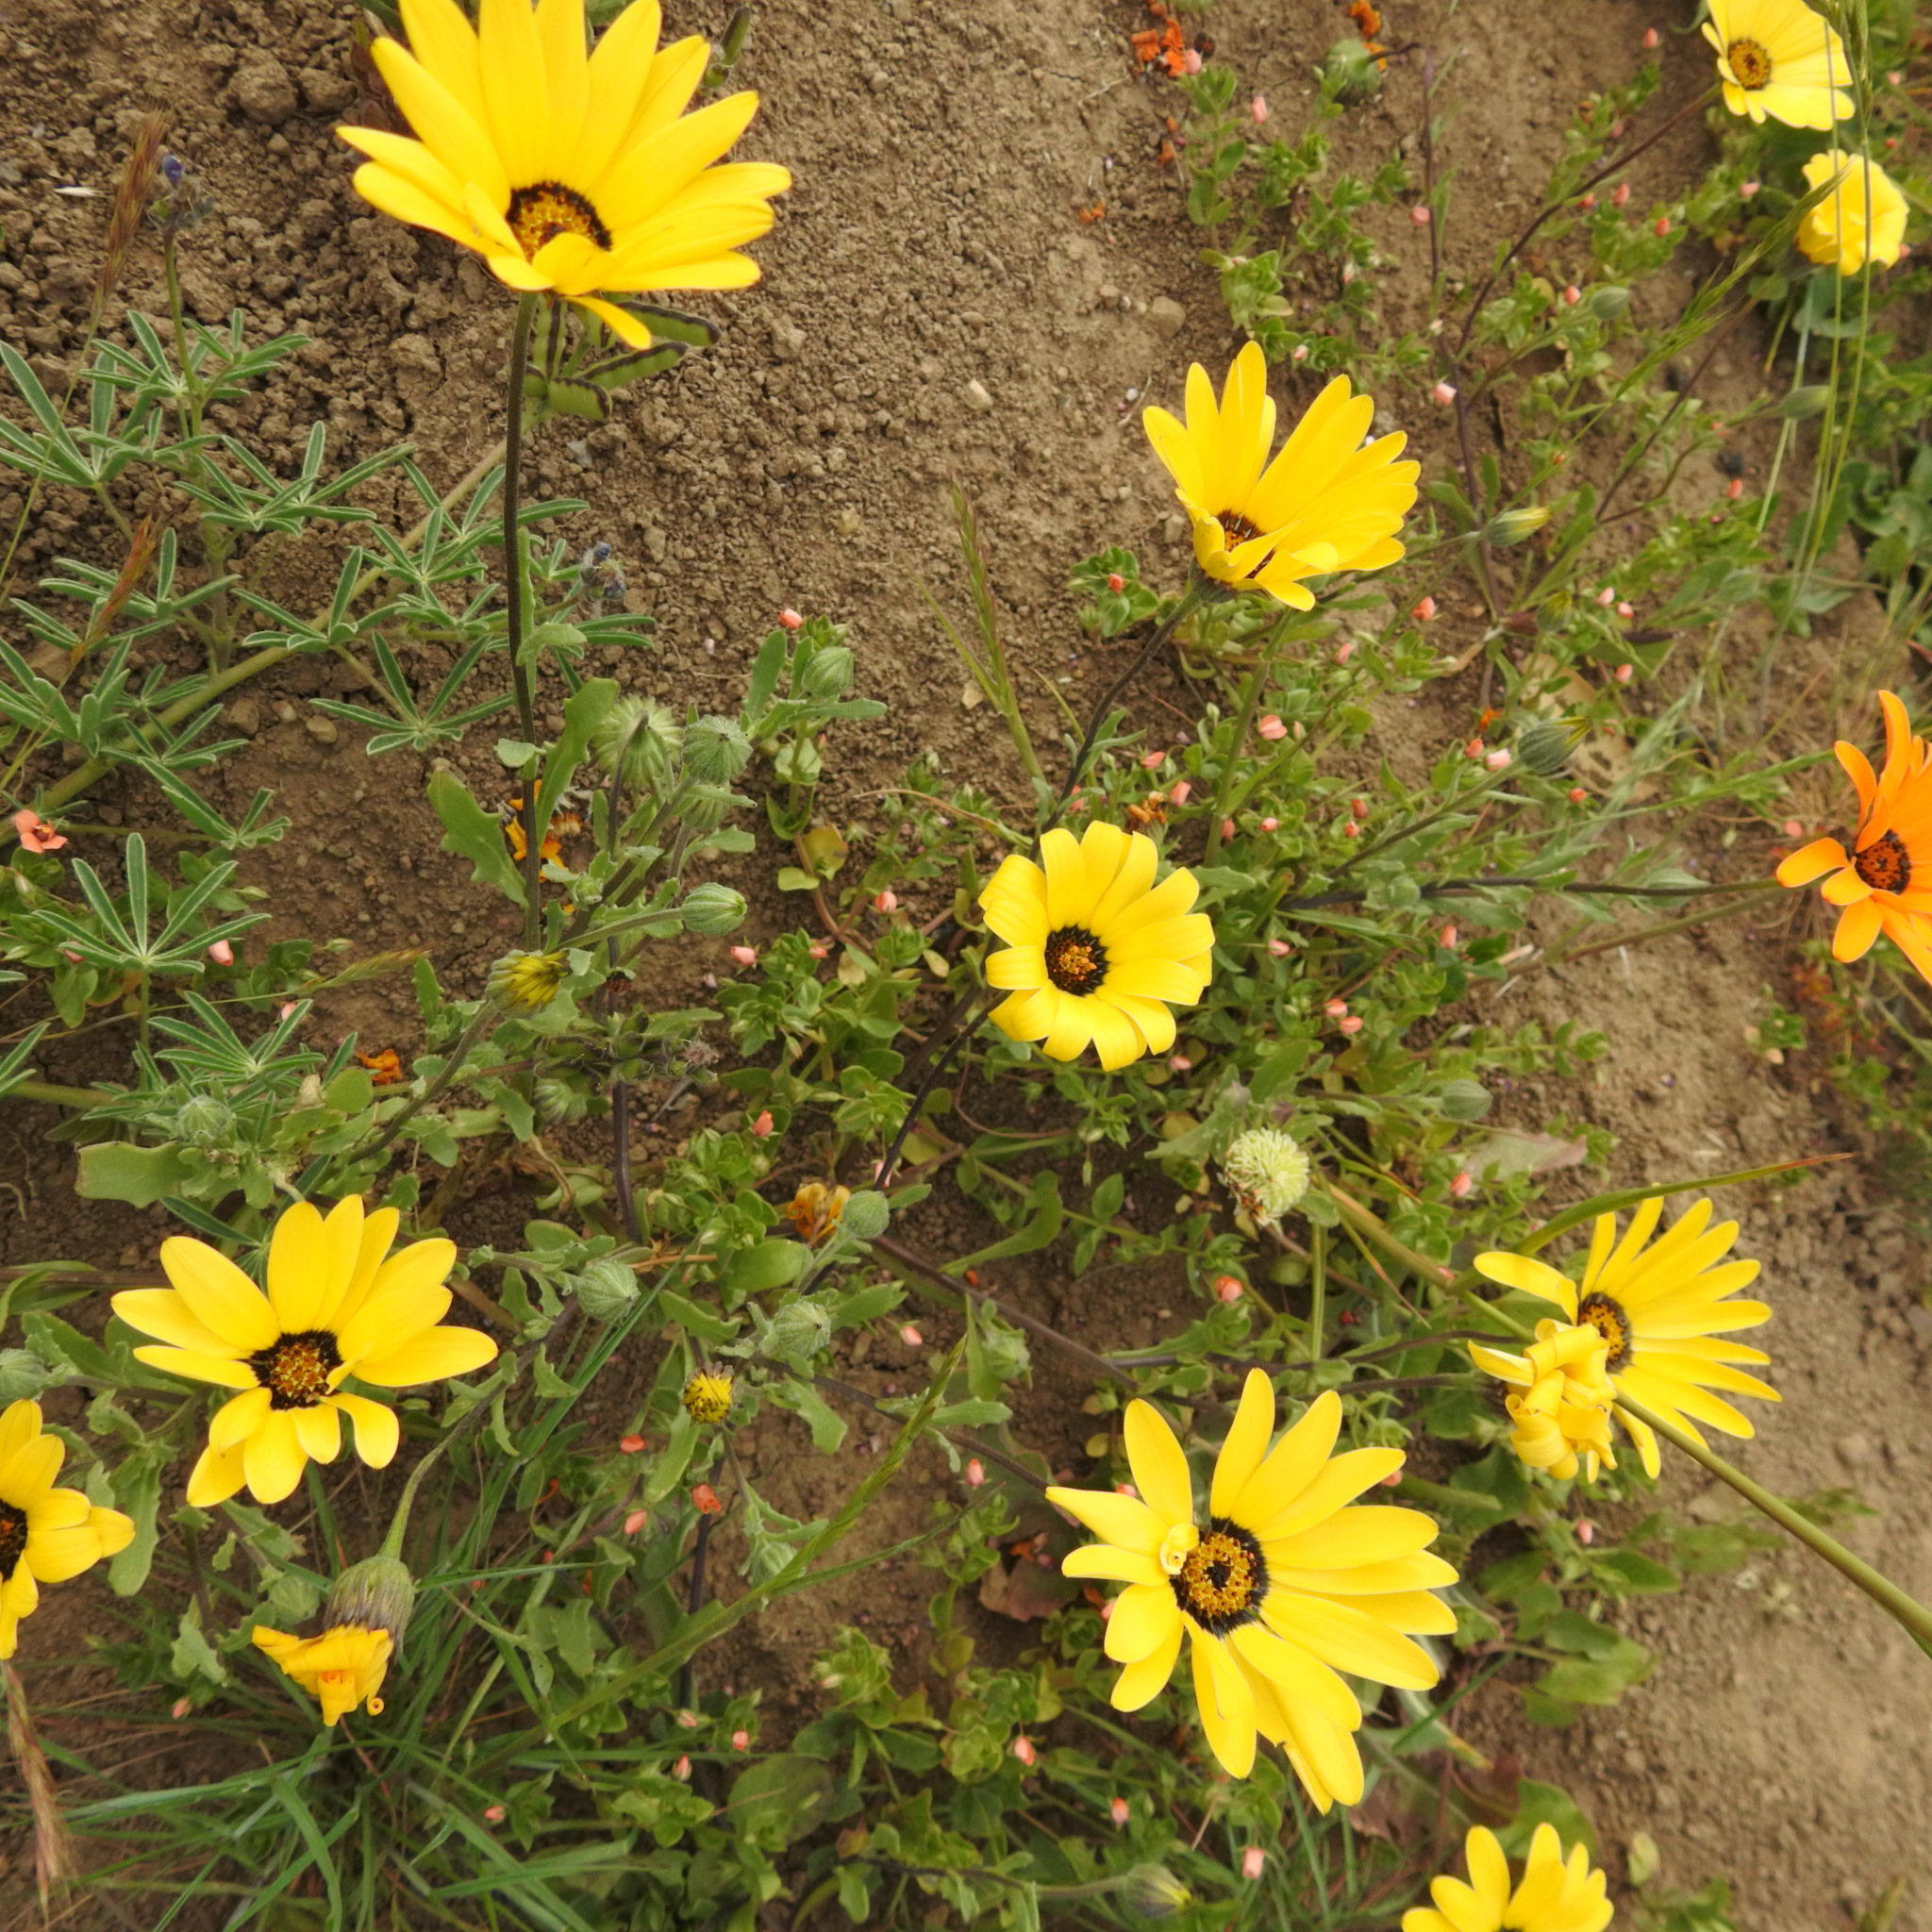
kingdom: Plantae
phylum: Tracheophyta
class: Magnoliopsida
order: Asterales
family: Asteraceae
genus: Dimorphotheca
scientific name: Dimorphotheca sinuata
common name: Glandular cape marigold
